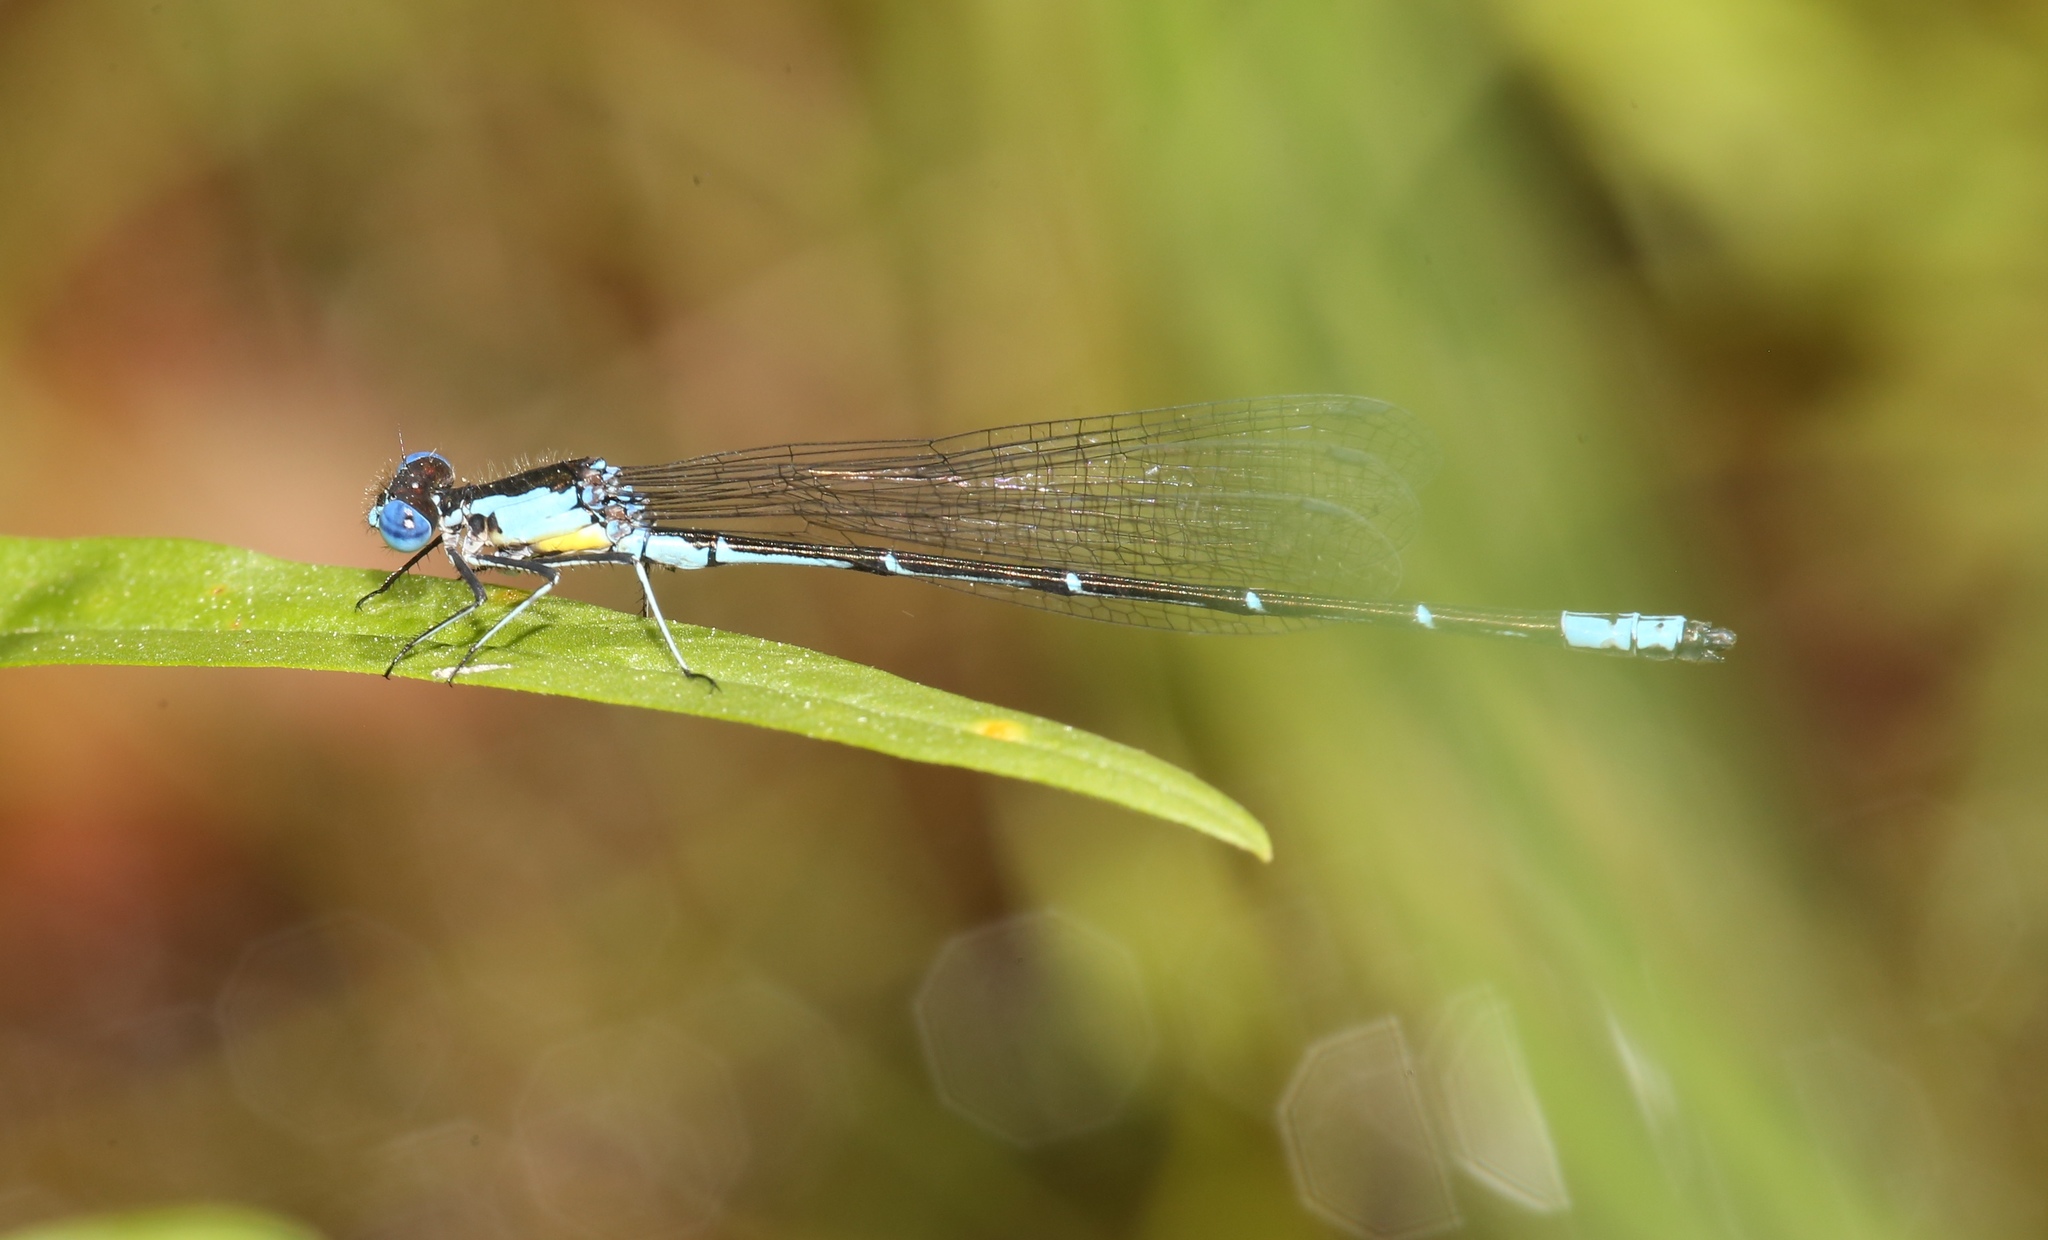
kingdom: Animalia
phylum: Arthropoda
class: Insecta
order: Odonata
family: Coenagrionidae
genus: Chromagrion
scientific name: Chromagrion conditum
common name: Aurora damsel
